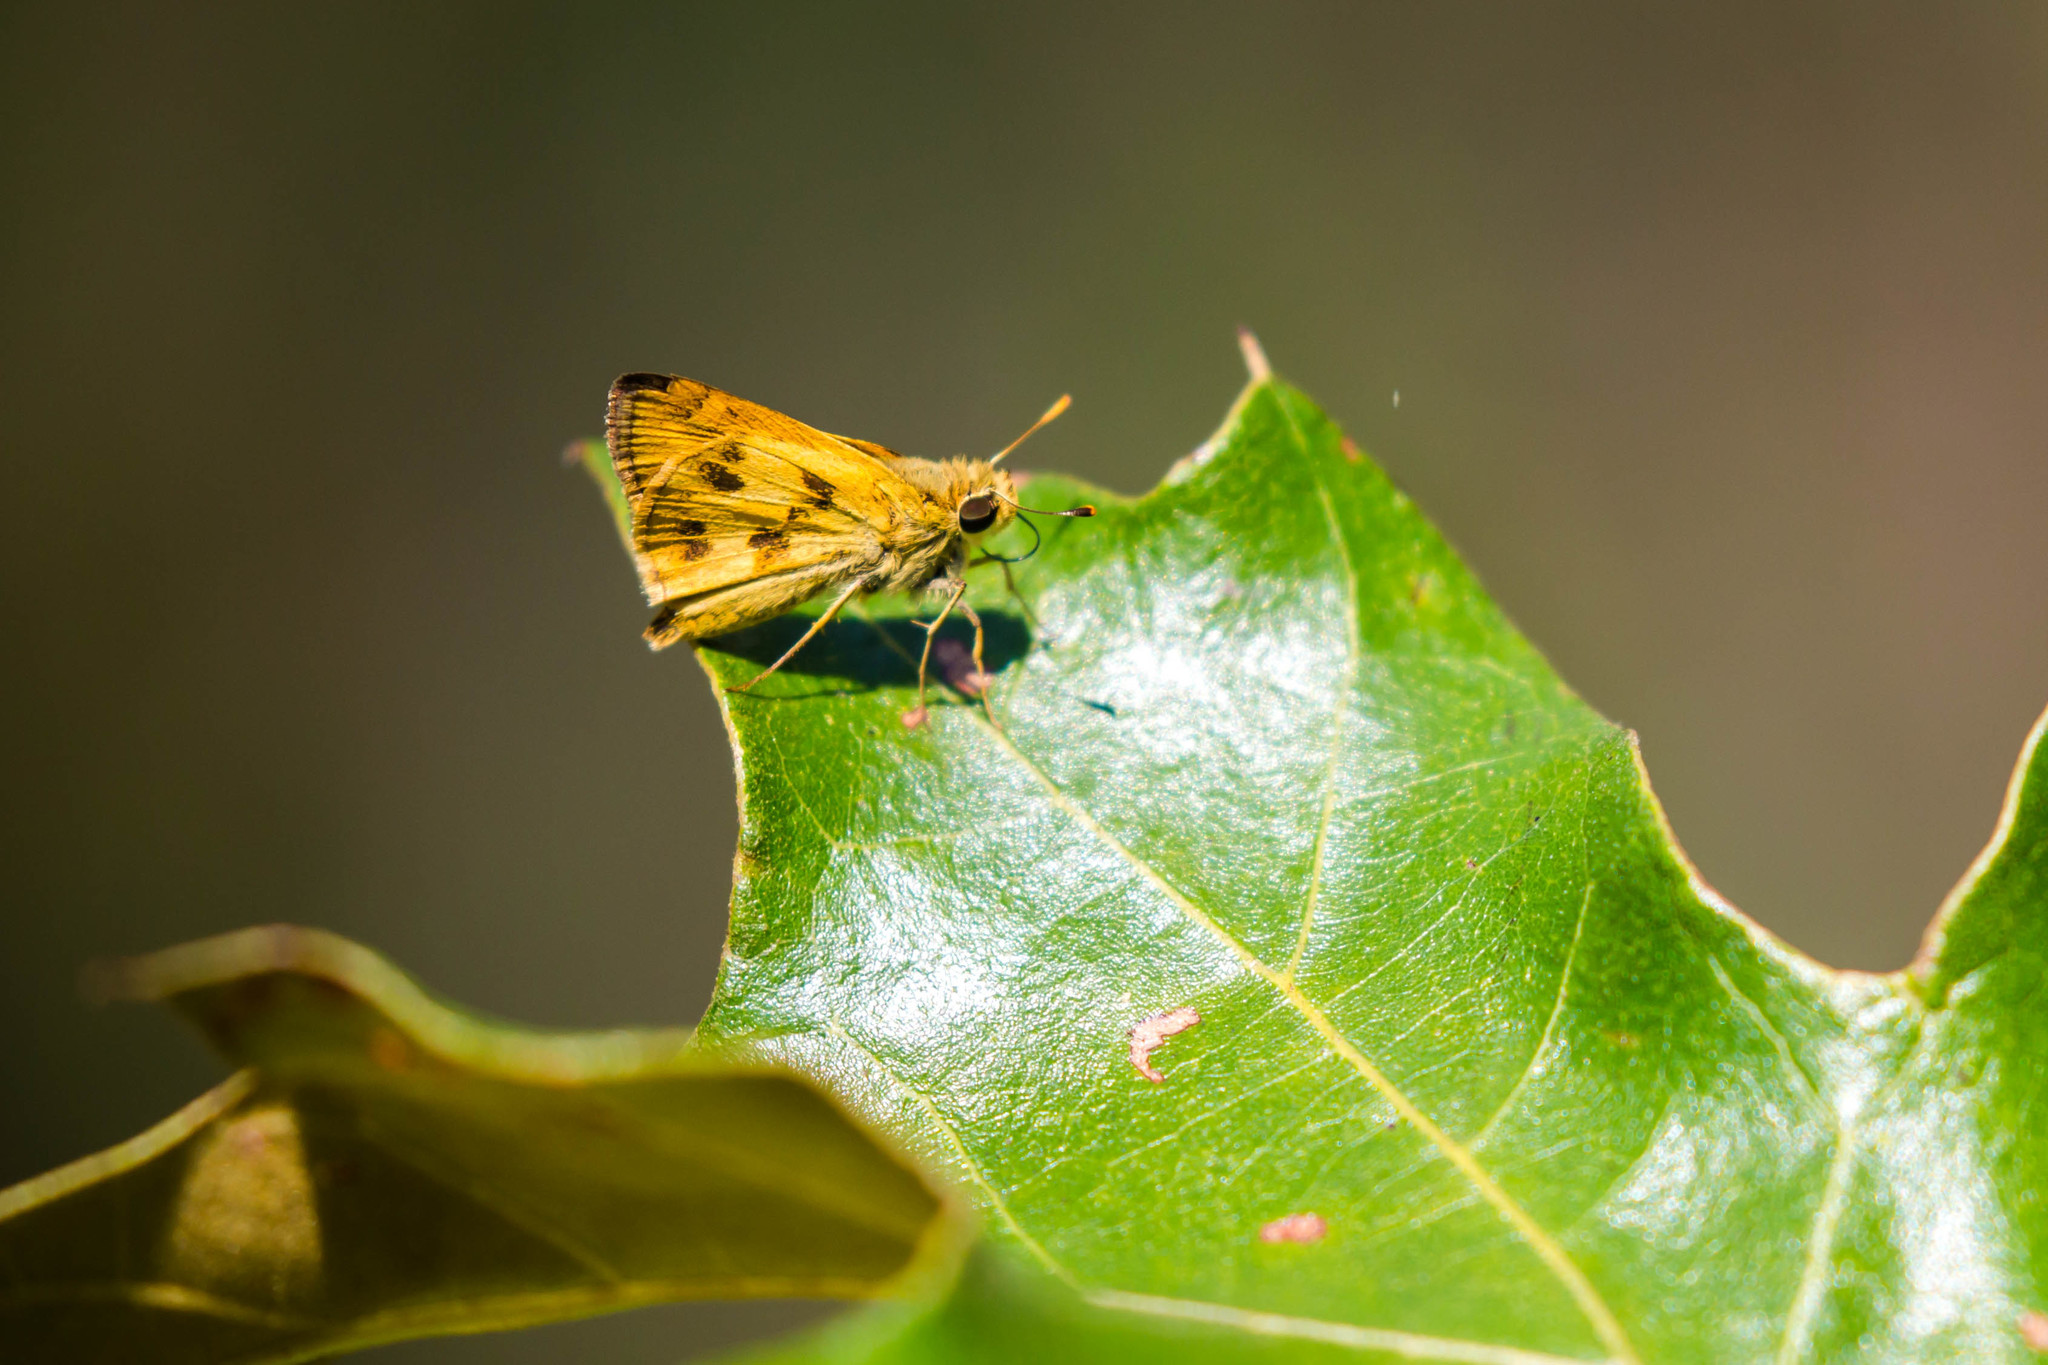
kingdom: Animalia
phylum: Arthropoda
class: Insecta
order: Lepidoptera
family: Hesperiidae
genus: Polites
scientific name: Polites vibex
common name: Whirlabout
